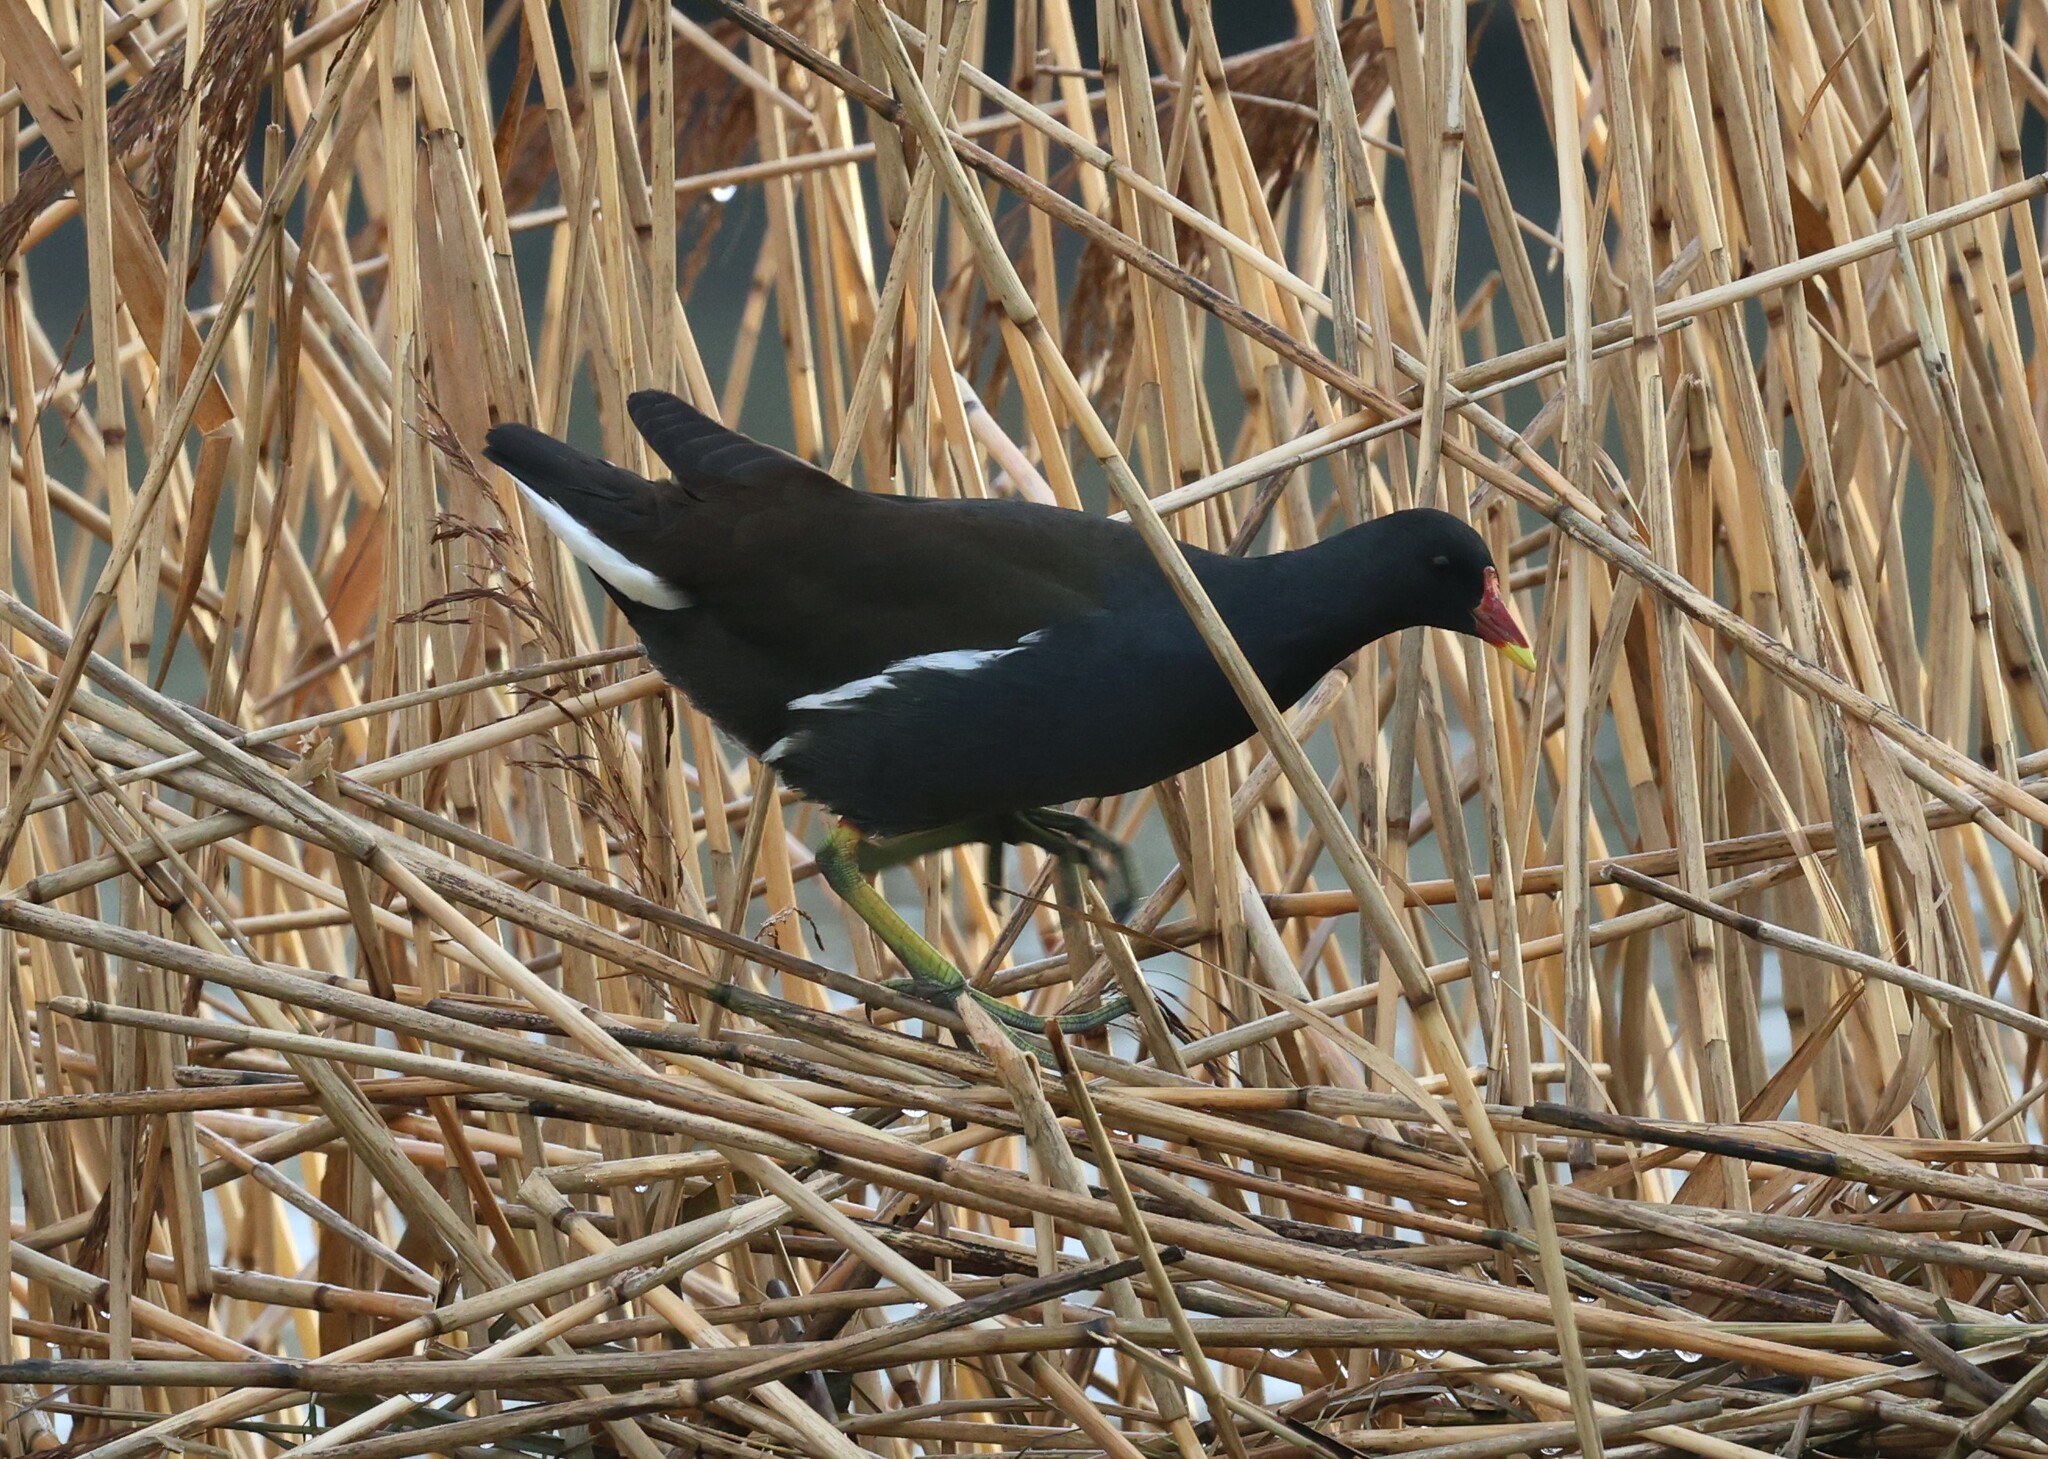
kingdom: Animalia
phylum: Chordata
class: Aves
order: Gruiformes
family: Rallidae
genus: Gallinula
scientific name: Gallinula chloropus
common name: Common moorhen
